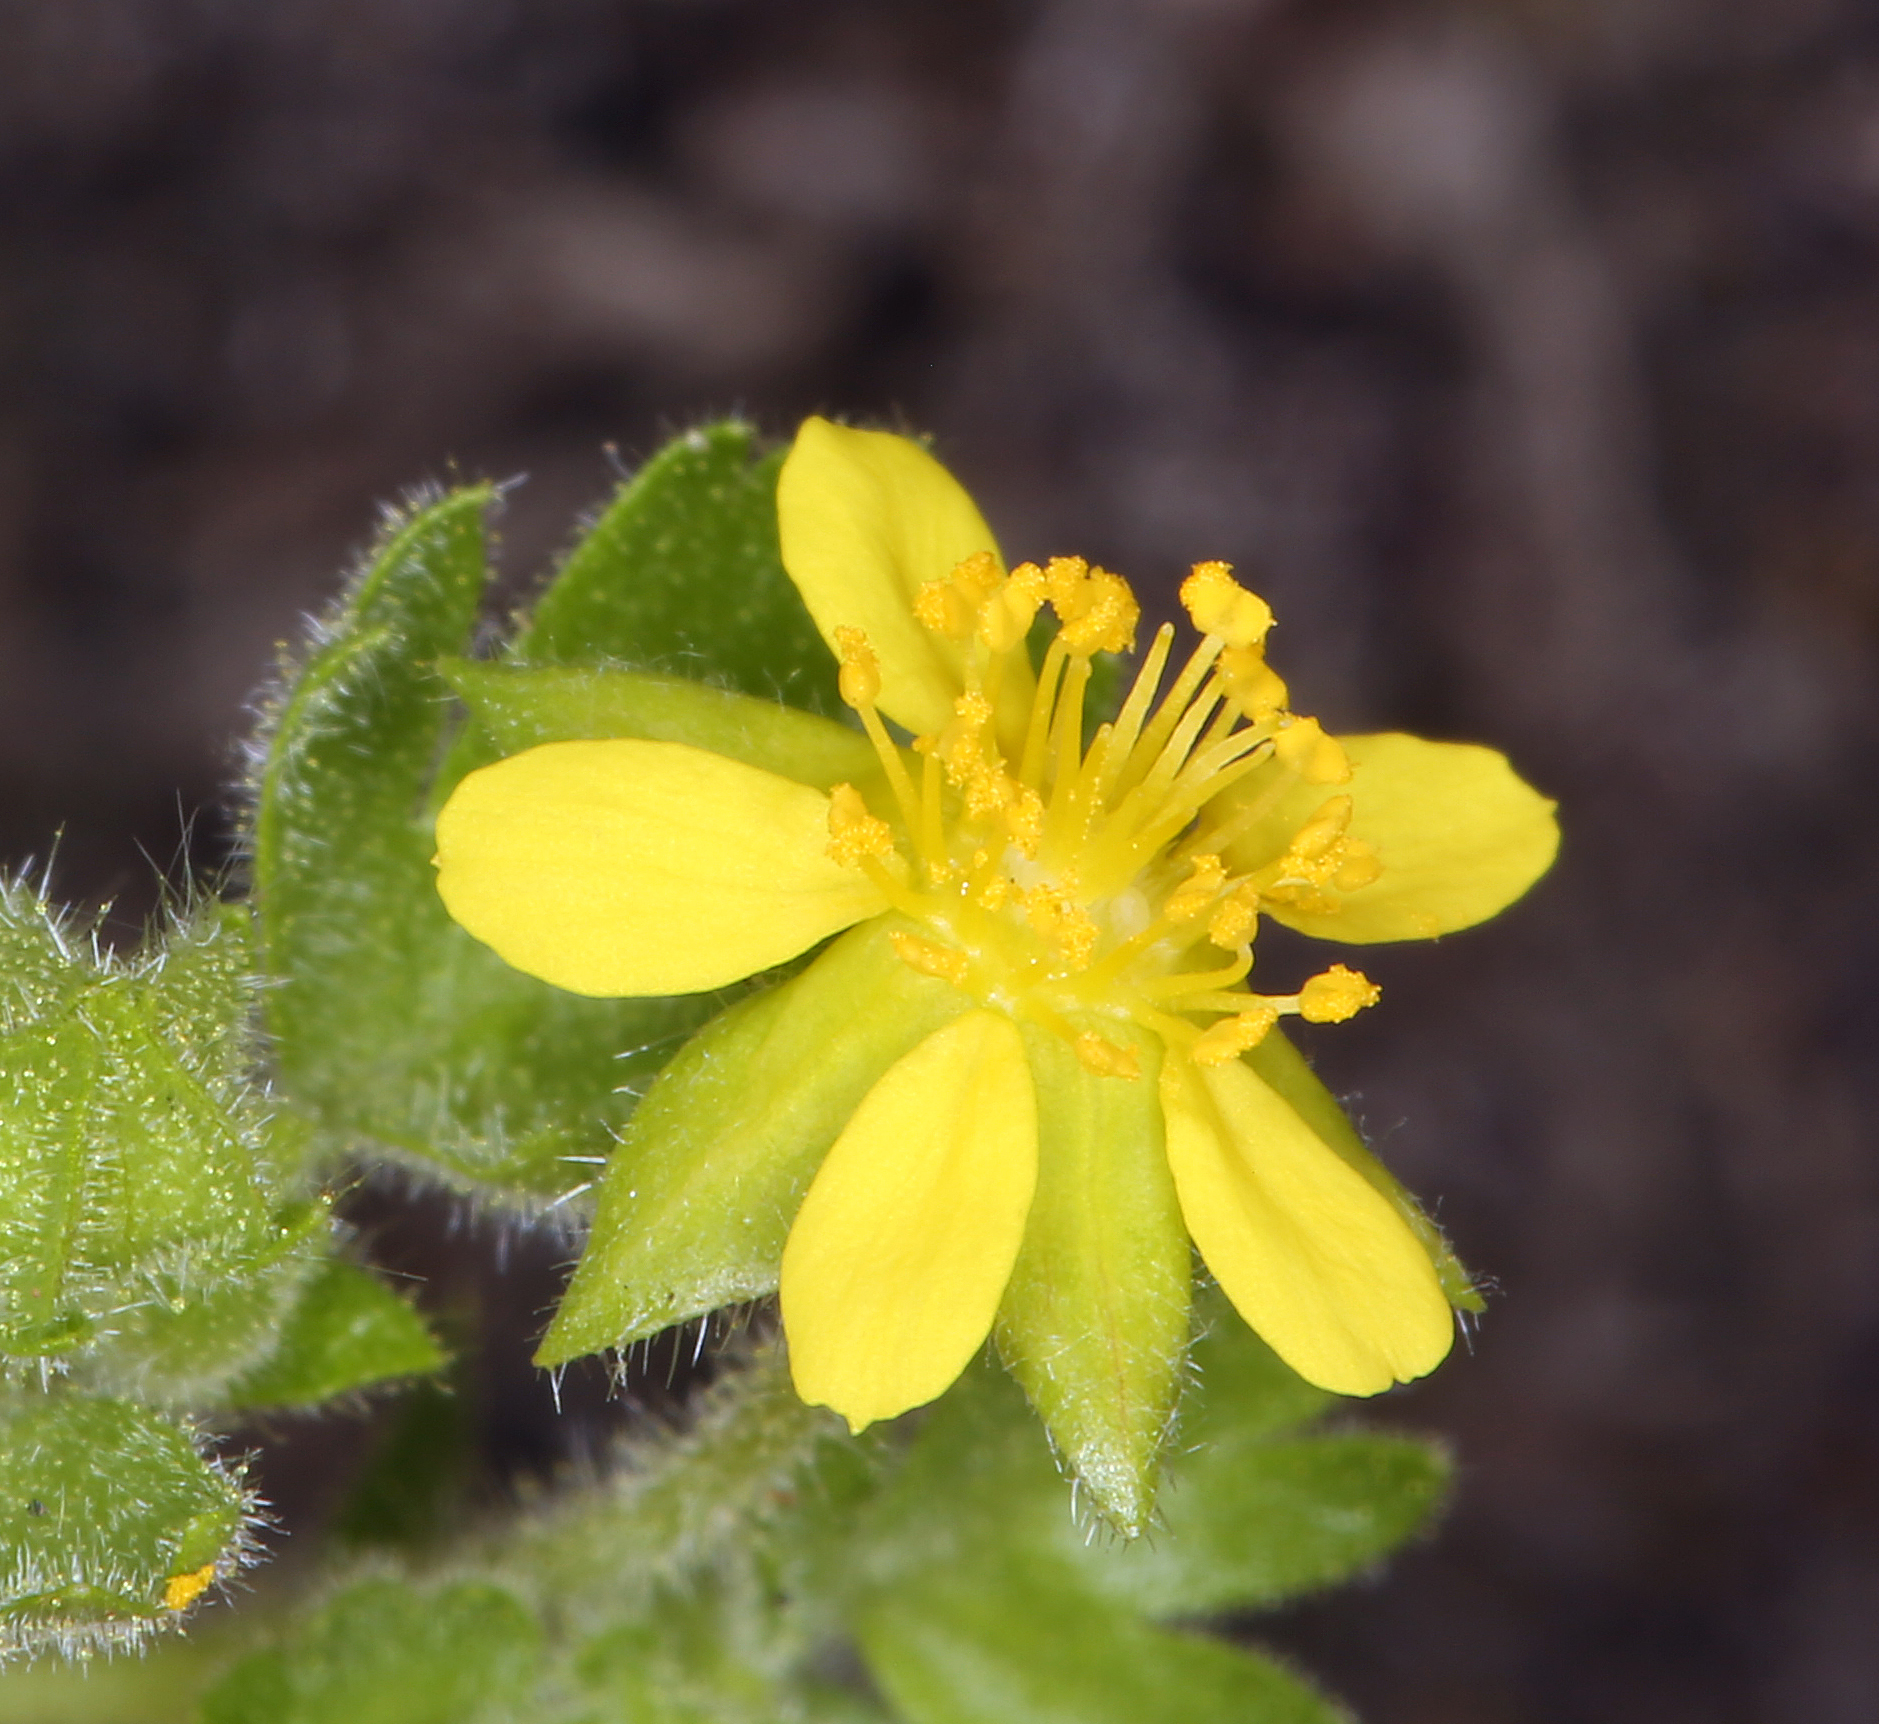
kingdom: Plantae
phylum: Tracheophyta
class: Magnoliopsida
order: Rosales
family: Rosaceae
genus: Potentilla
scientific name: Potentilla saxosa
